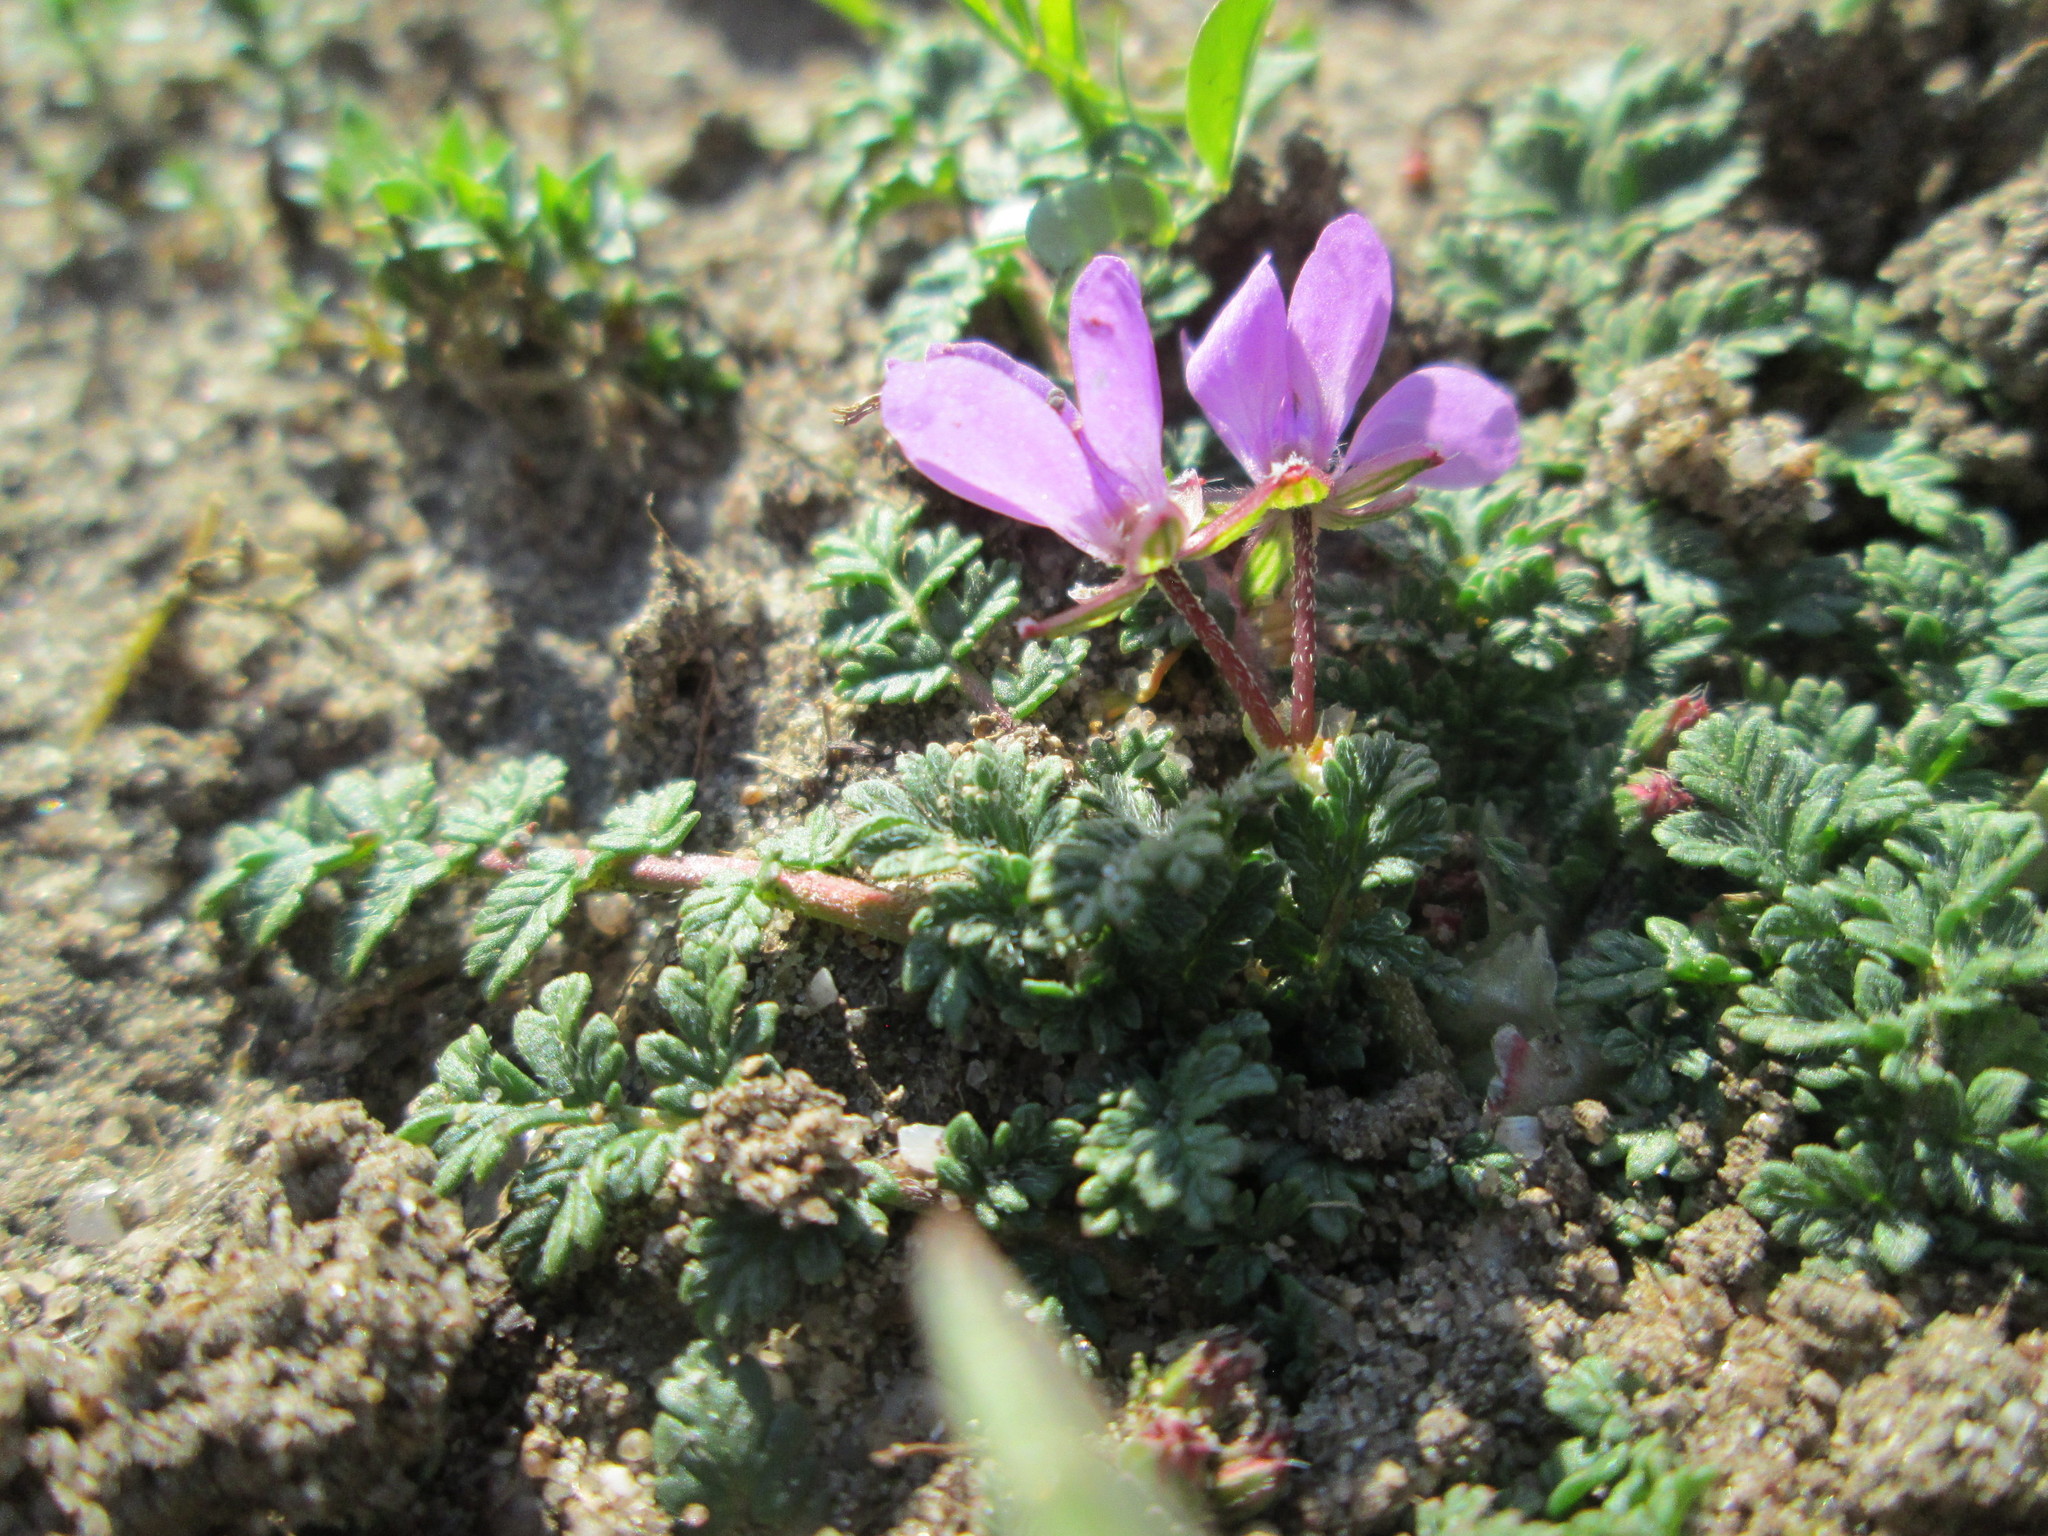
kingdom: Plantae
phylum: Tracheophyta
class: Magnoliopsida
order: Geraniales
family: Geraniaceae
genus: Erodium
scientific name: Erodium cicutarium
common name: Common stork's-bill
